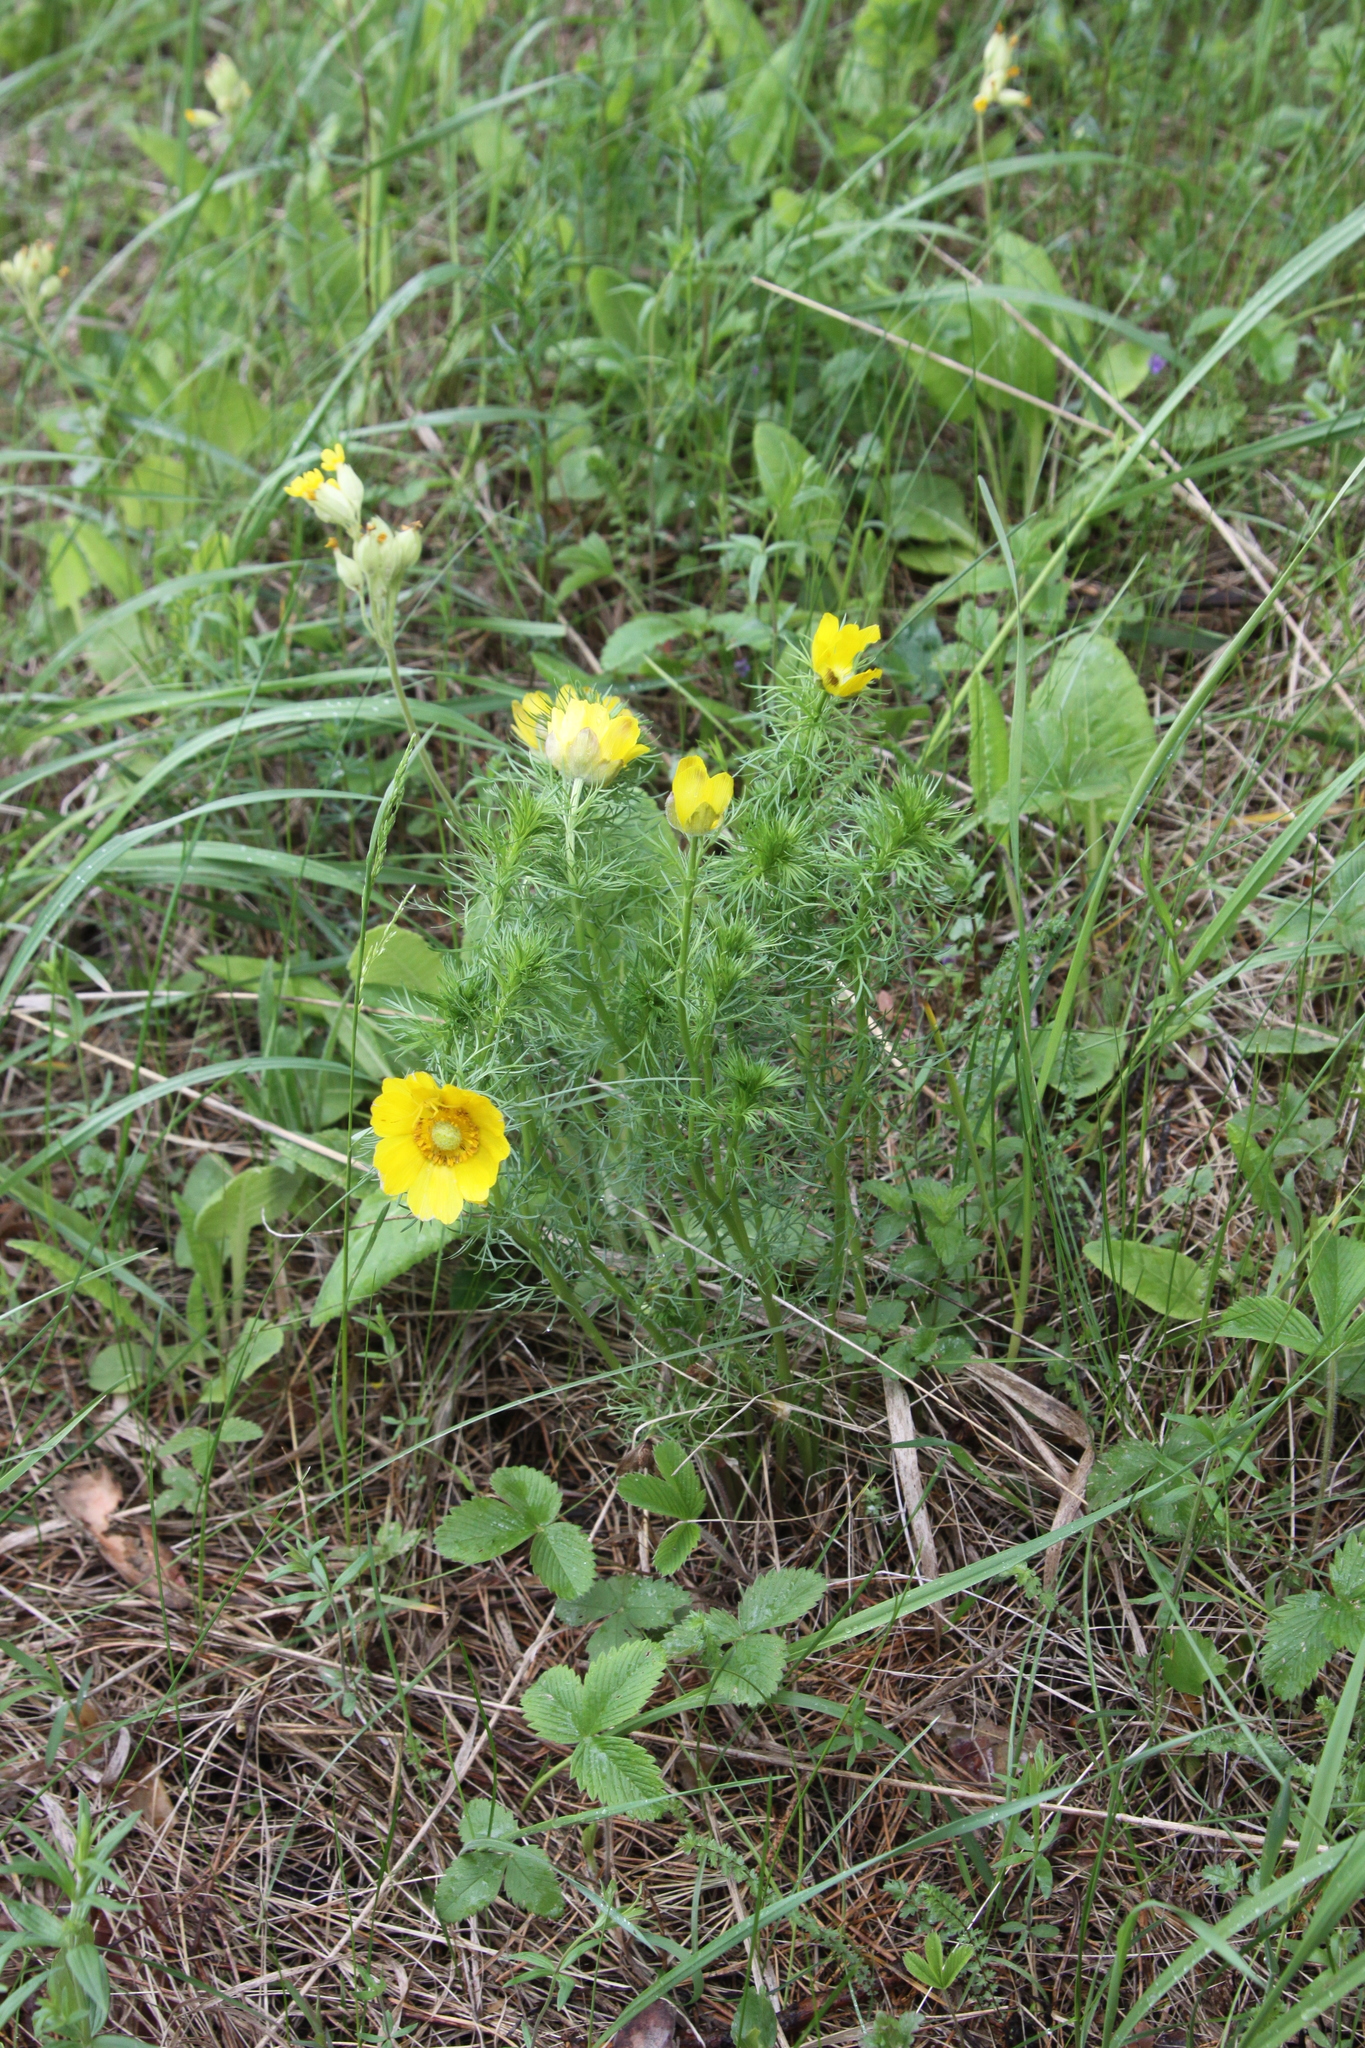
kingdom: Plantae
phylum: Tracheophyta
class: Magnoliopsida
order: Ranunculales
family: Ranunculaceae
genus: Adonis
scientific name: Adonis vernalis
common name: Yellow pheasants-eye
